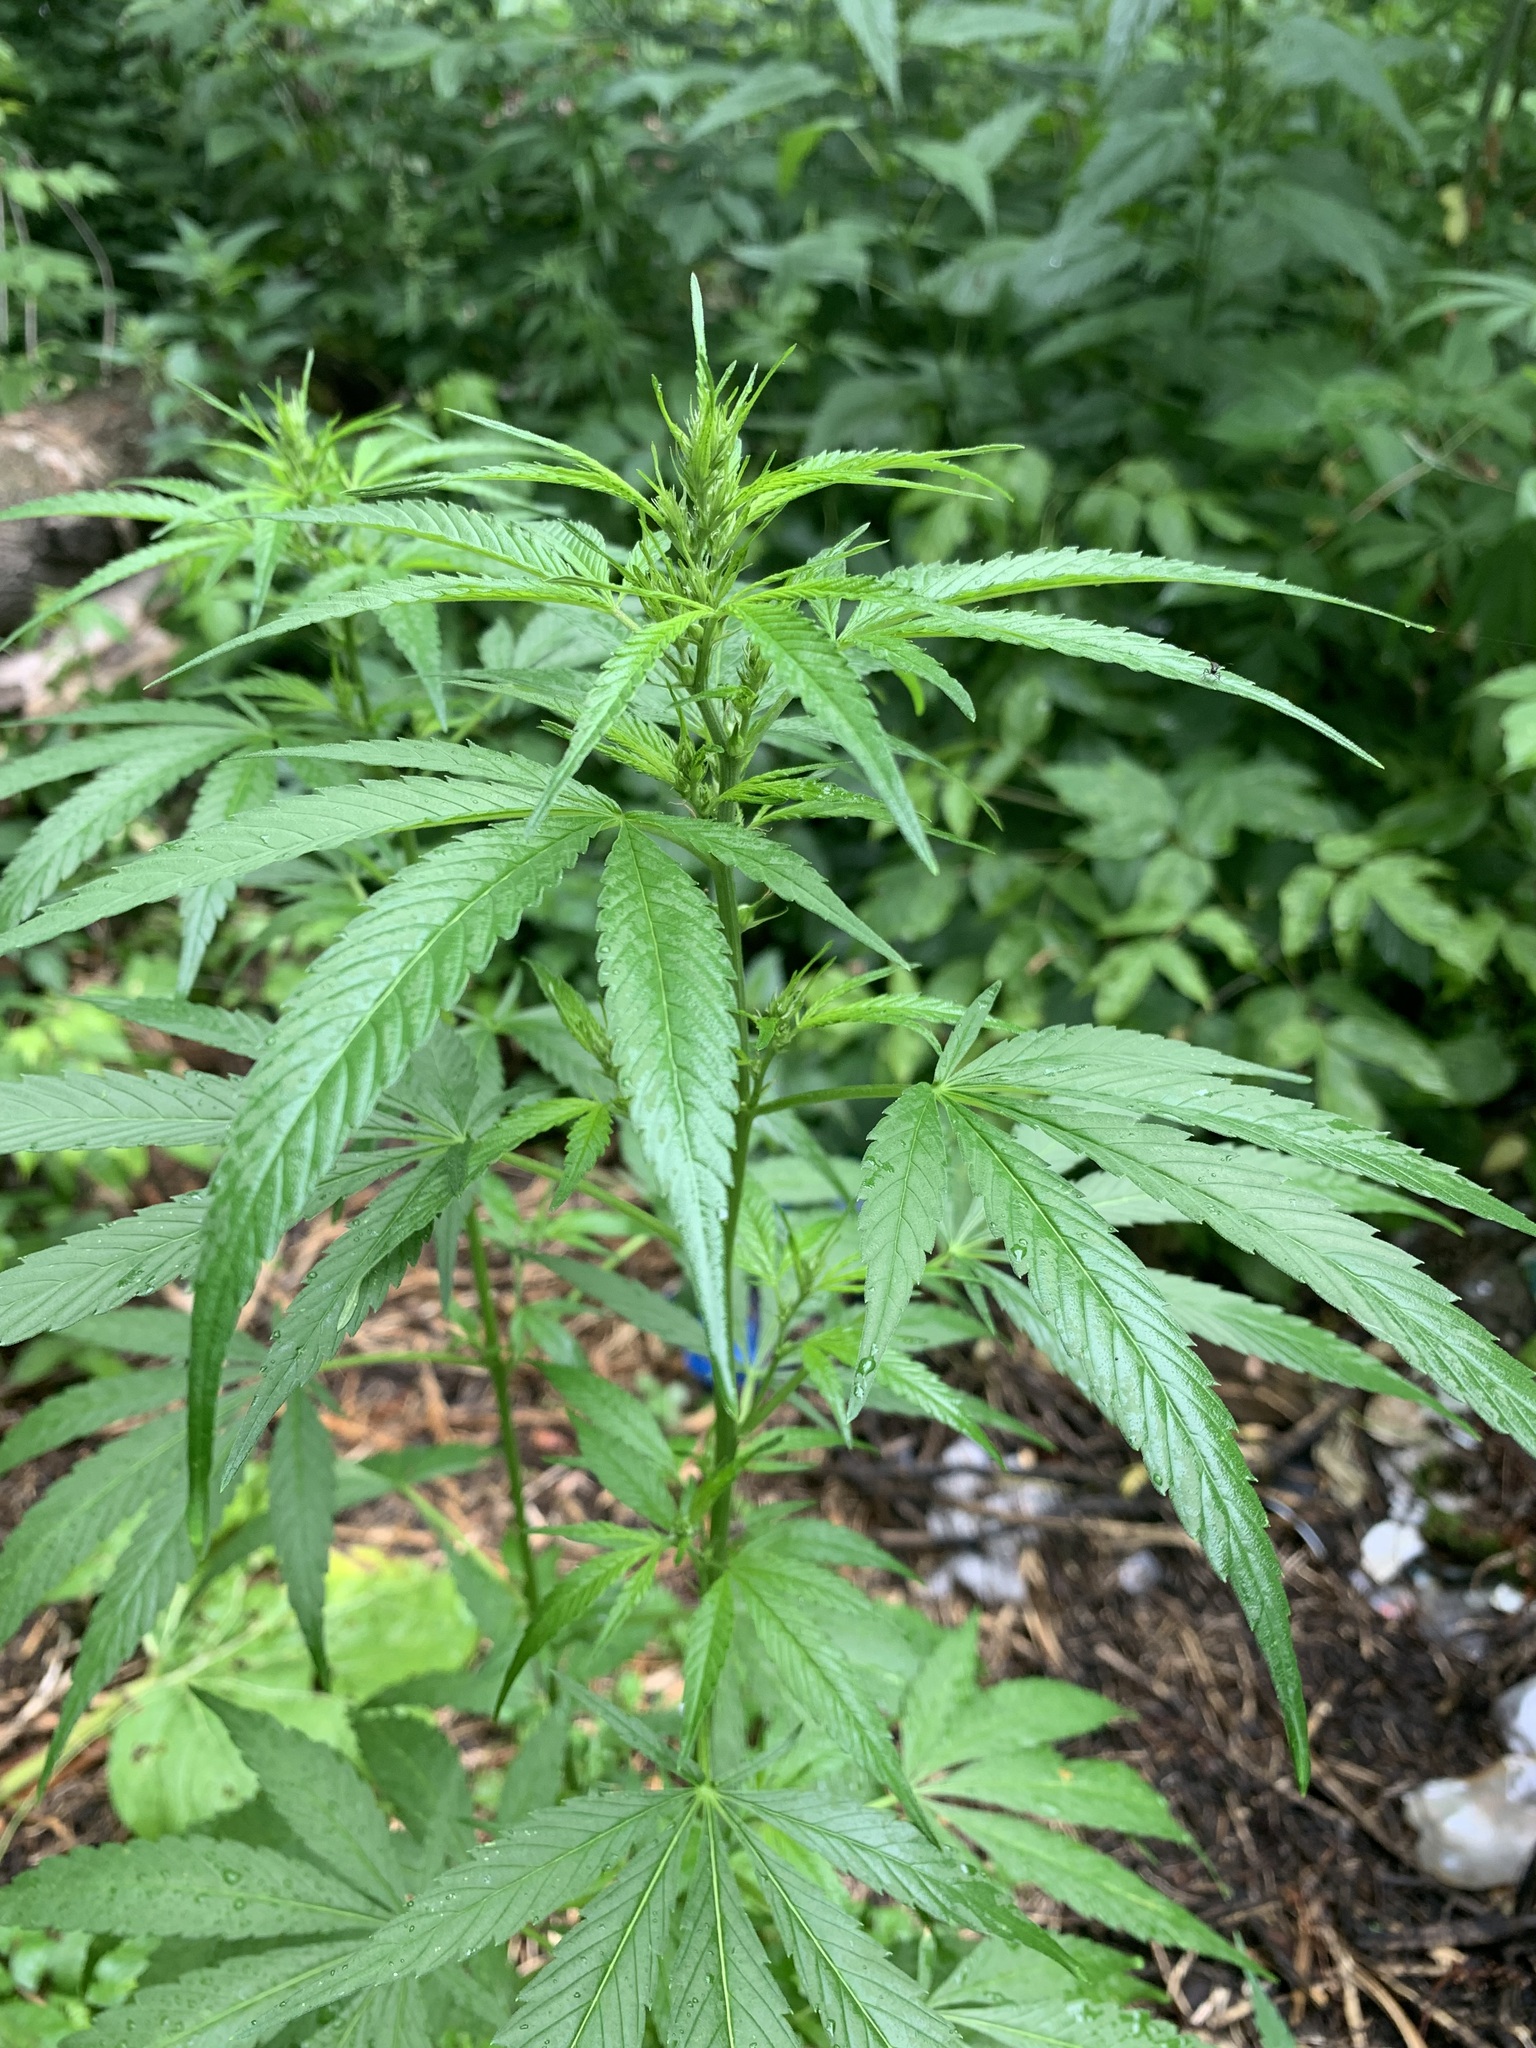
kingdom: Plantae
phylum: Tracheophyta
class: Magnoliopsida
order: Rosales
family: Cannabaceae
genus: Cannabis
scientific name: Cannabis sativa
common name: Hemp
